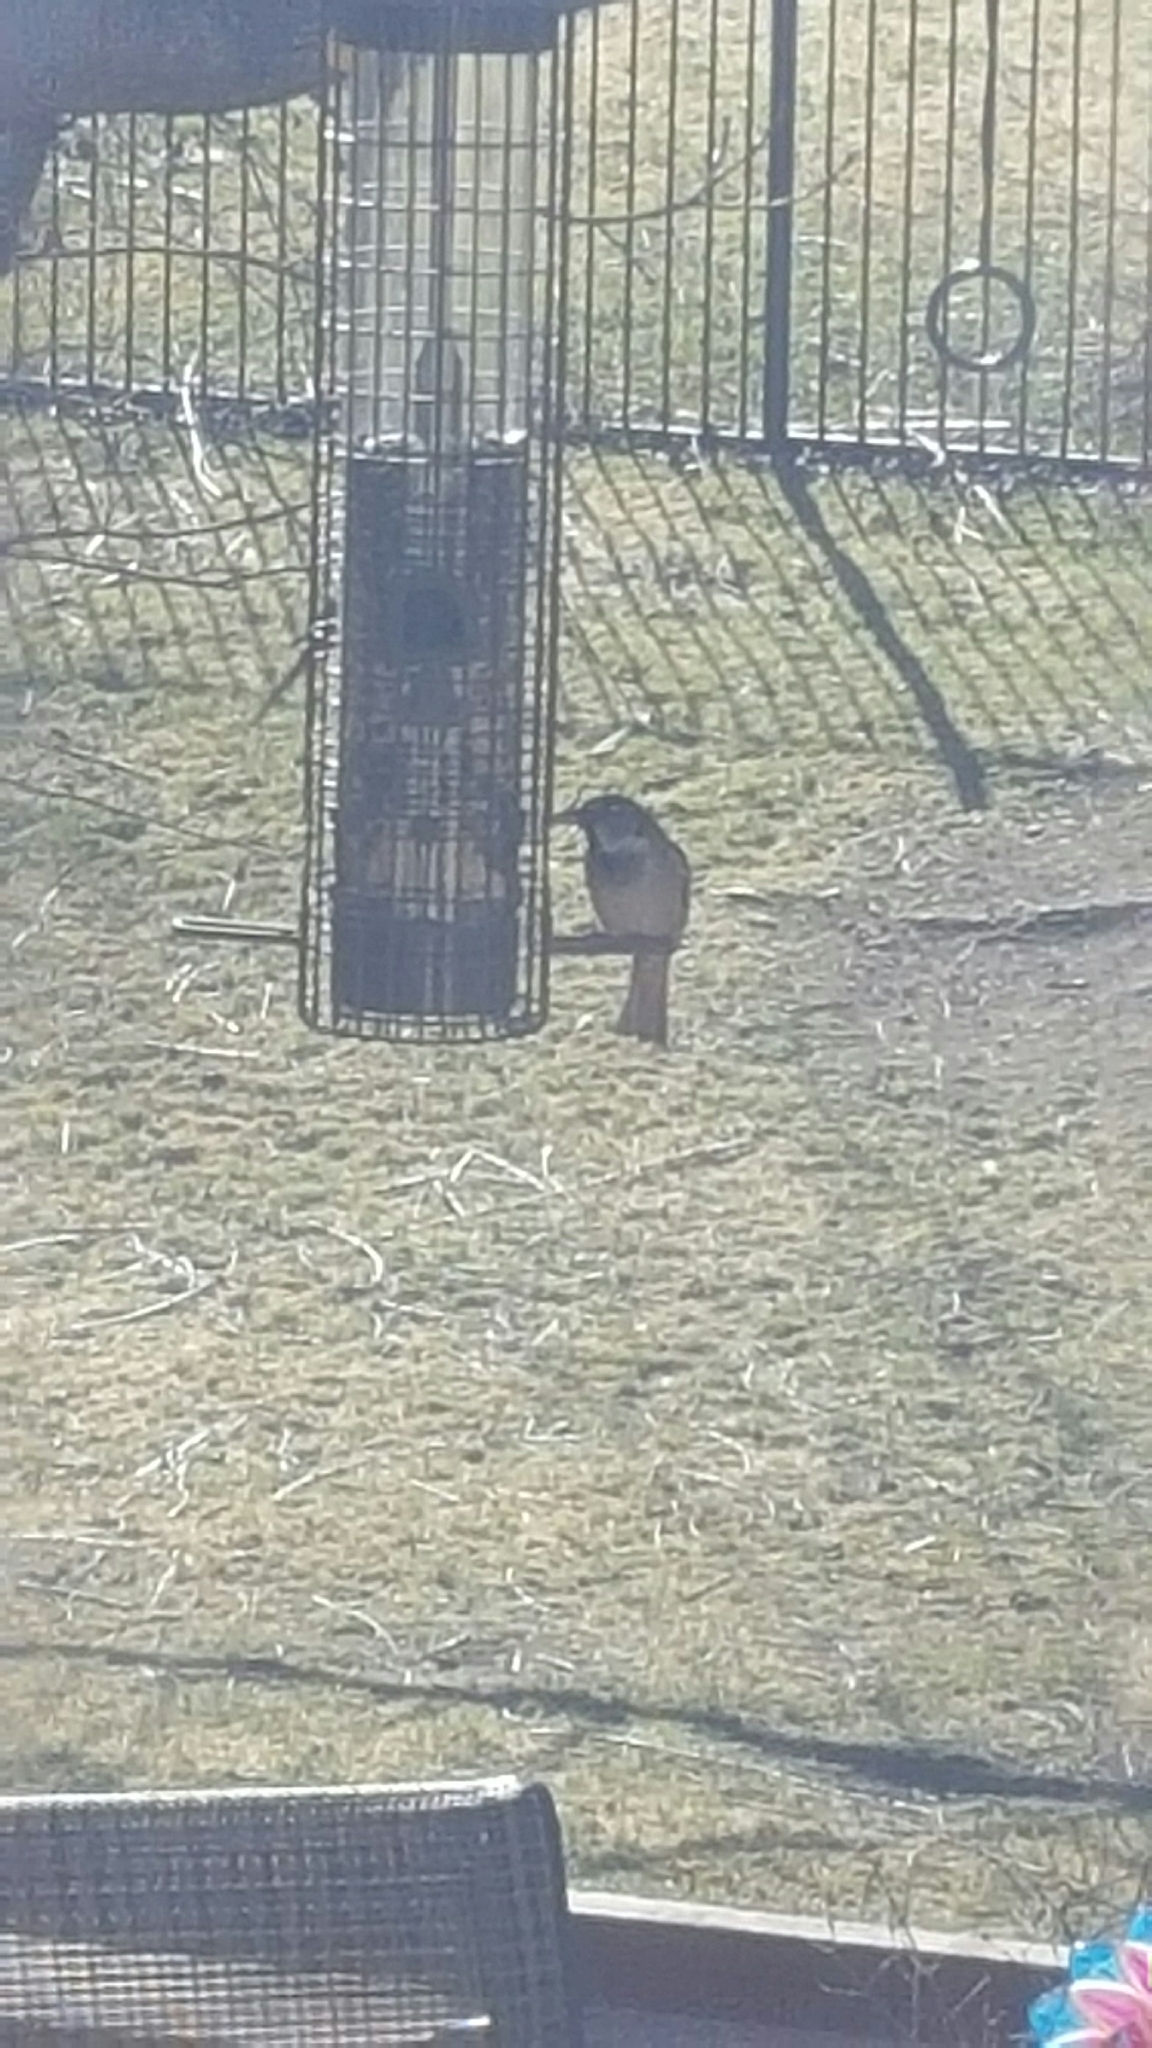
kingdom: Animalia
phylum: Chordata
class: Aves
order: Passeriformes
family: Passeridae
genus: Passer
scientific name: Passer domesticus
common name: House sparrow
